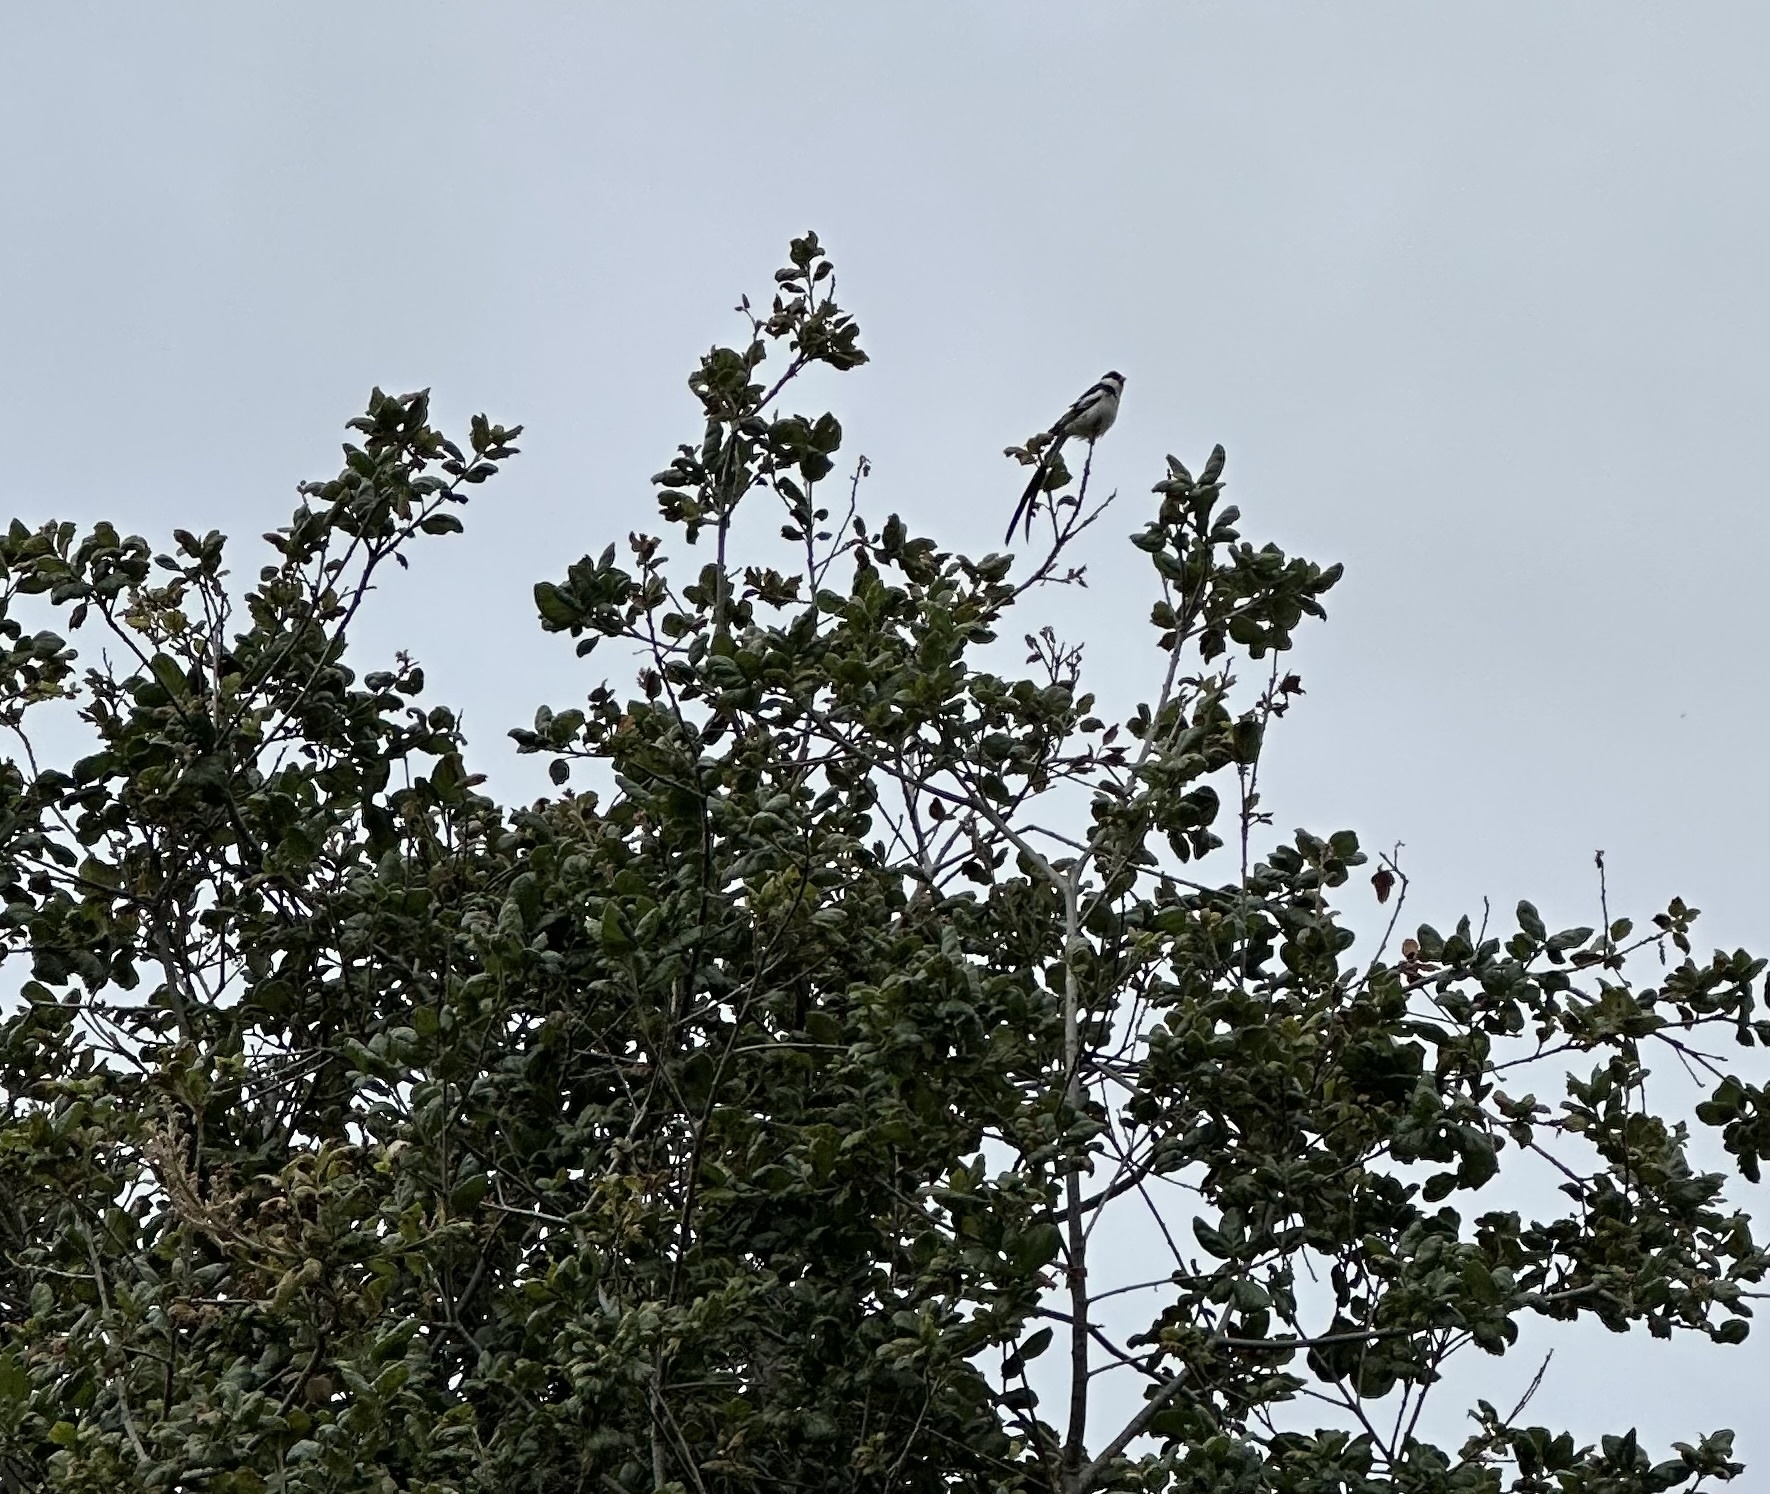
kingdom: Animalia
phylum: Chordata
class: Aves
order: Passeriformes
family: Viduidae
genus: Vidua
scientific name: Vidua macroura
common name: Pin-tailed whydah
